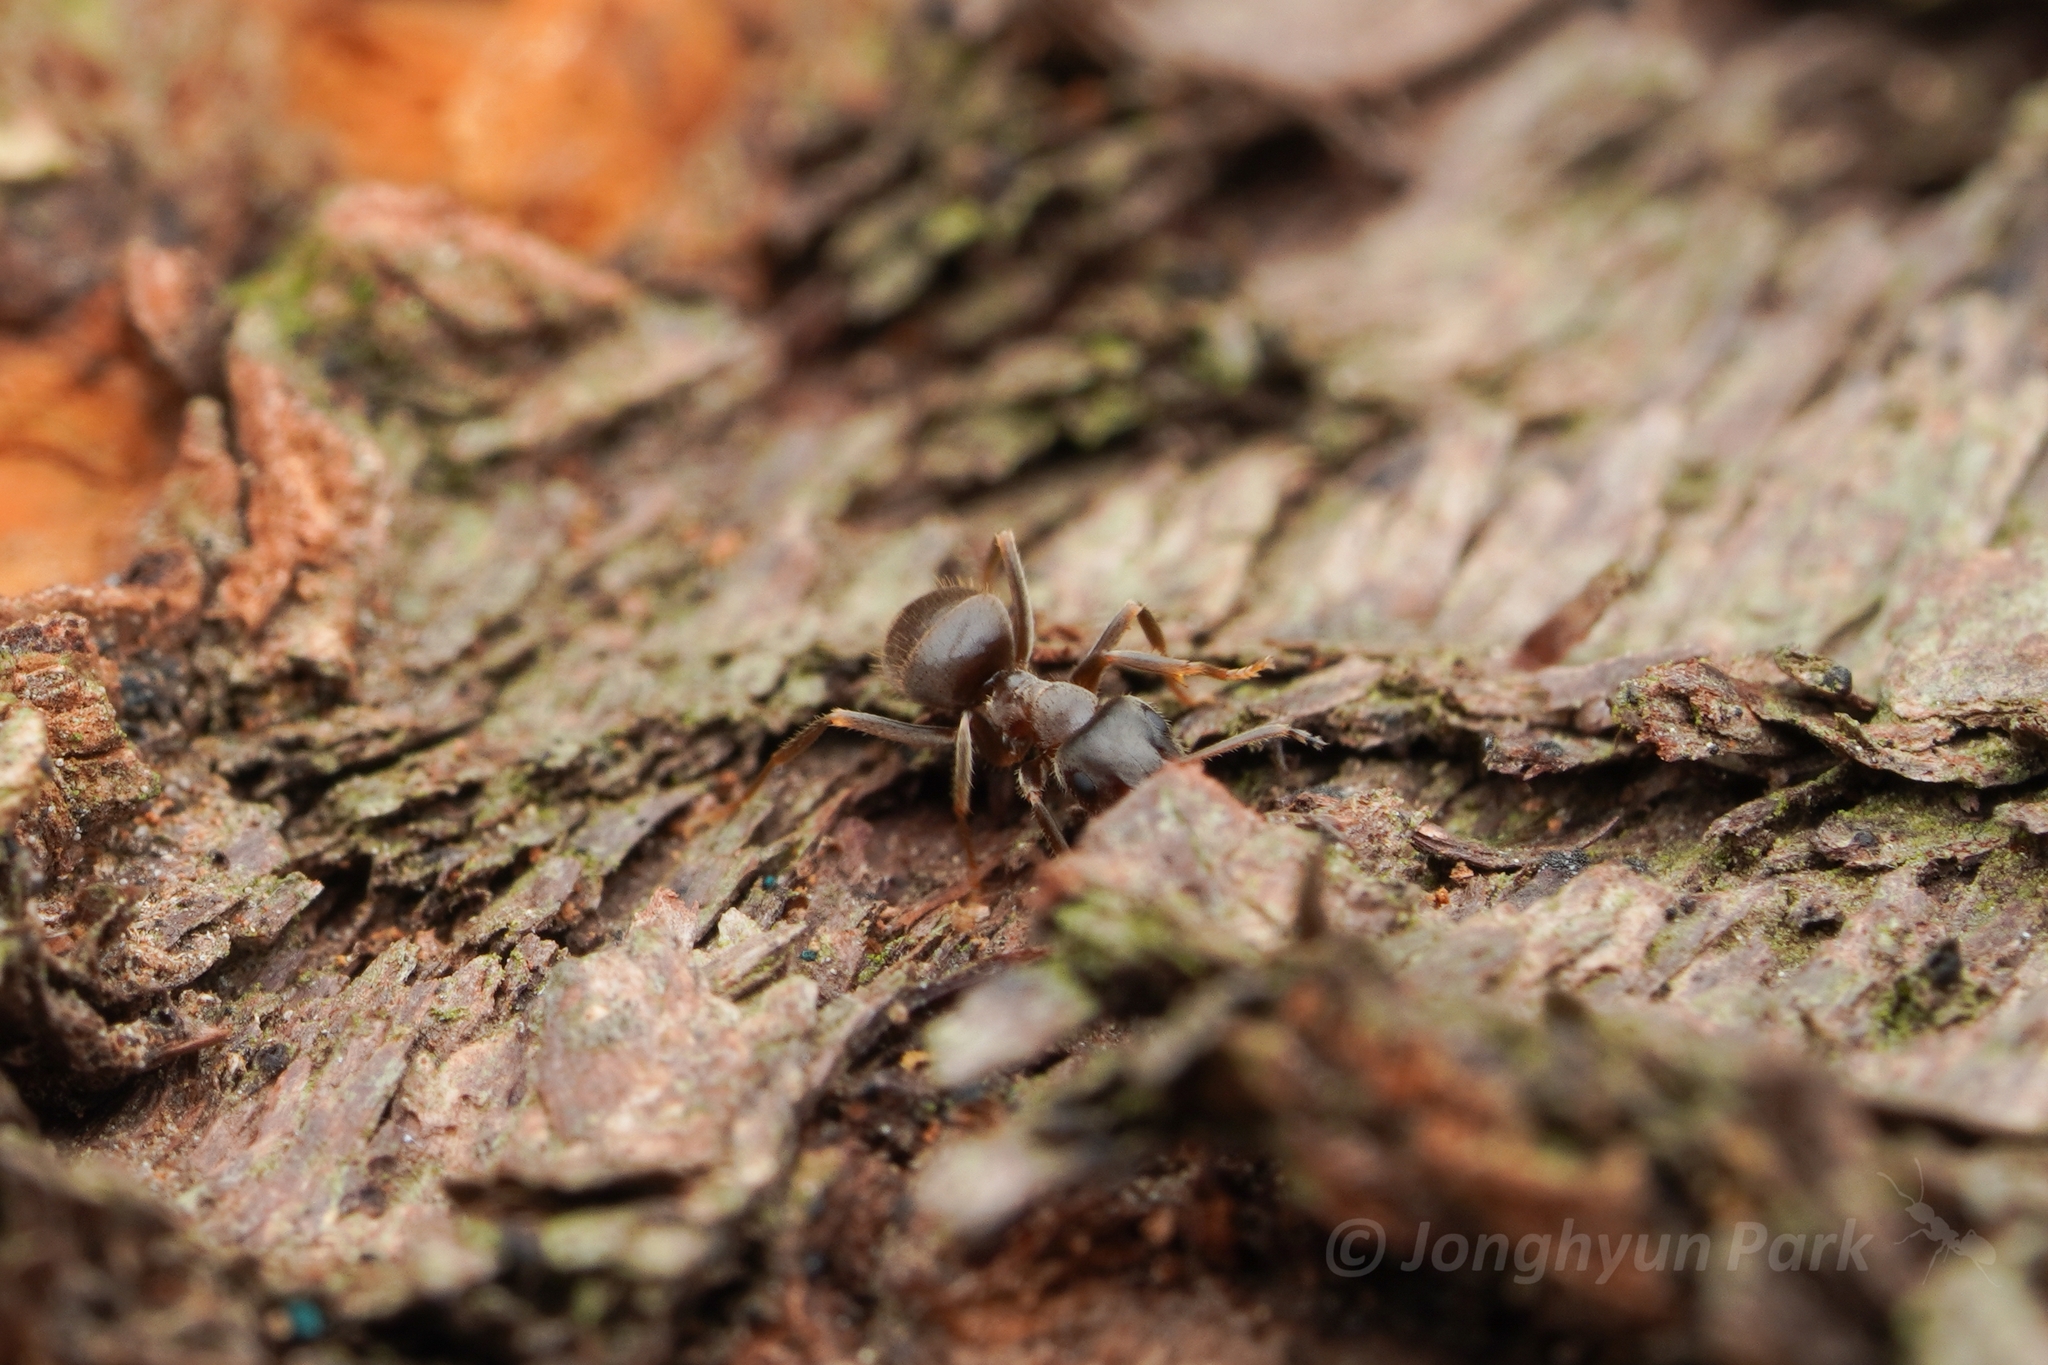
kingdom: Animalia
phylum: Arthropoda
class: Insecta
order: Hymenoptera
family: Formicidae
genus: Lasius
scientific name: Lasius japonicus
